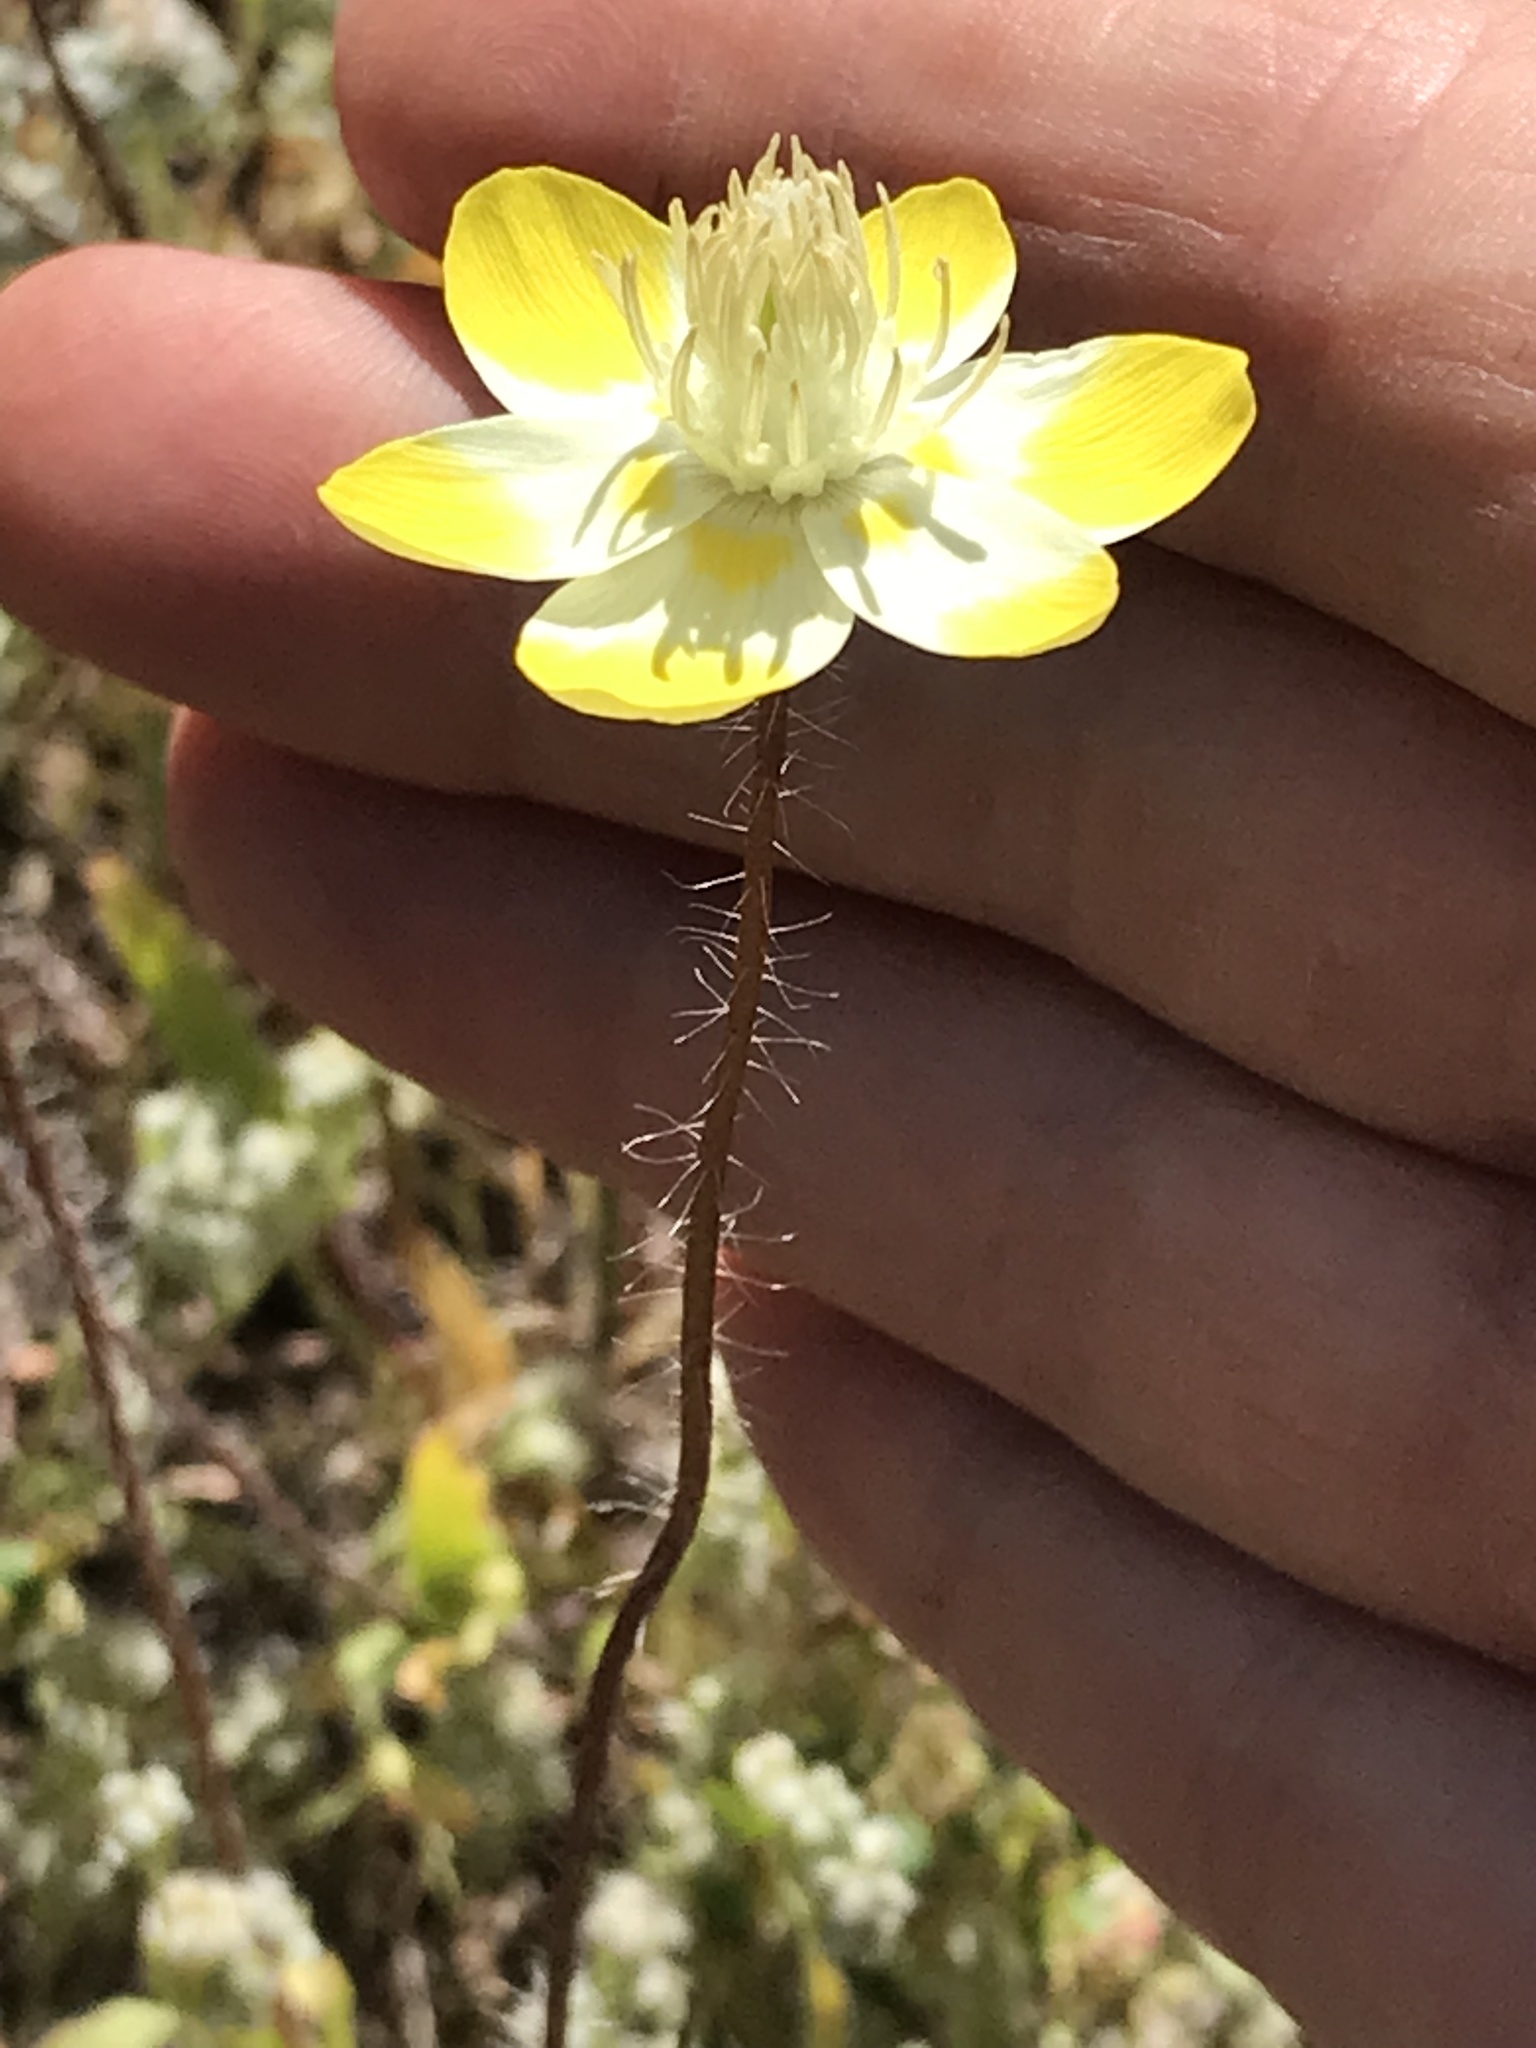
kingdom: Plantae
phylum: Tracheophyta
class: Magnoliopsida
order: Ranunculales
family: Papaveraceae
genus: Platystemon
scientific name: Platystemon californicus
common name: Cream-cups
